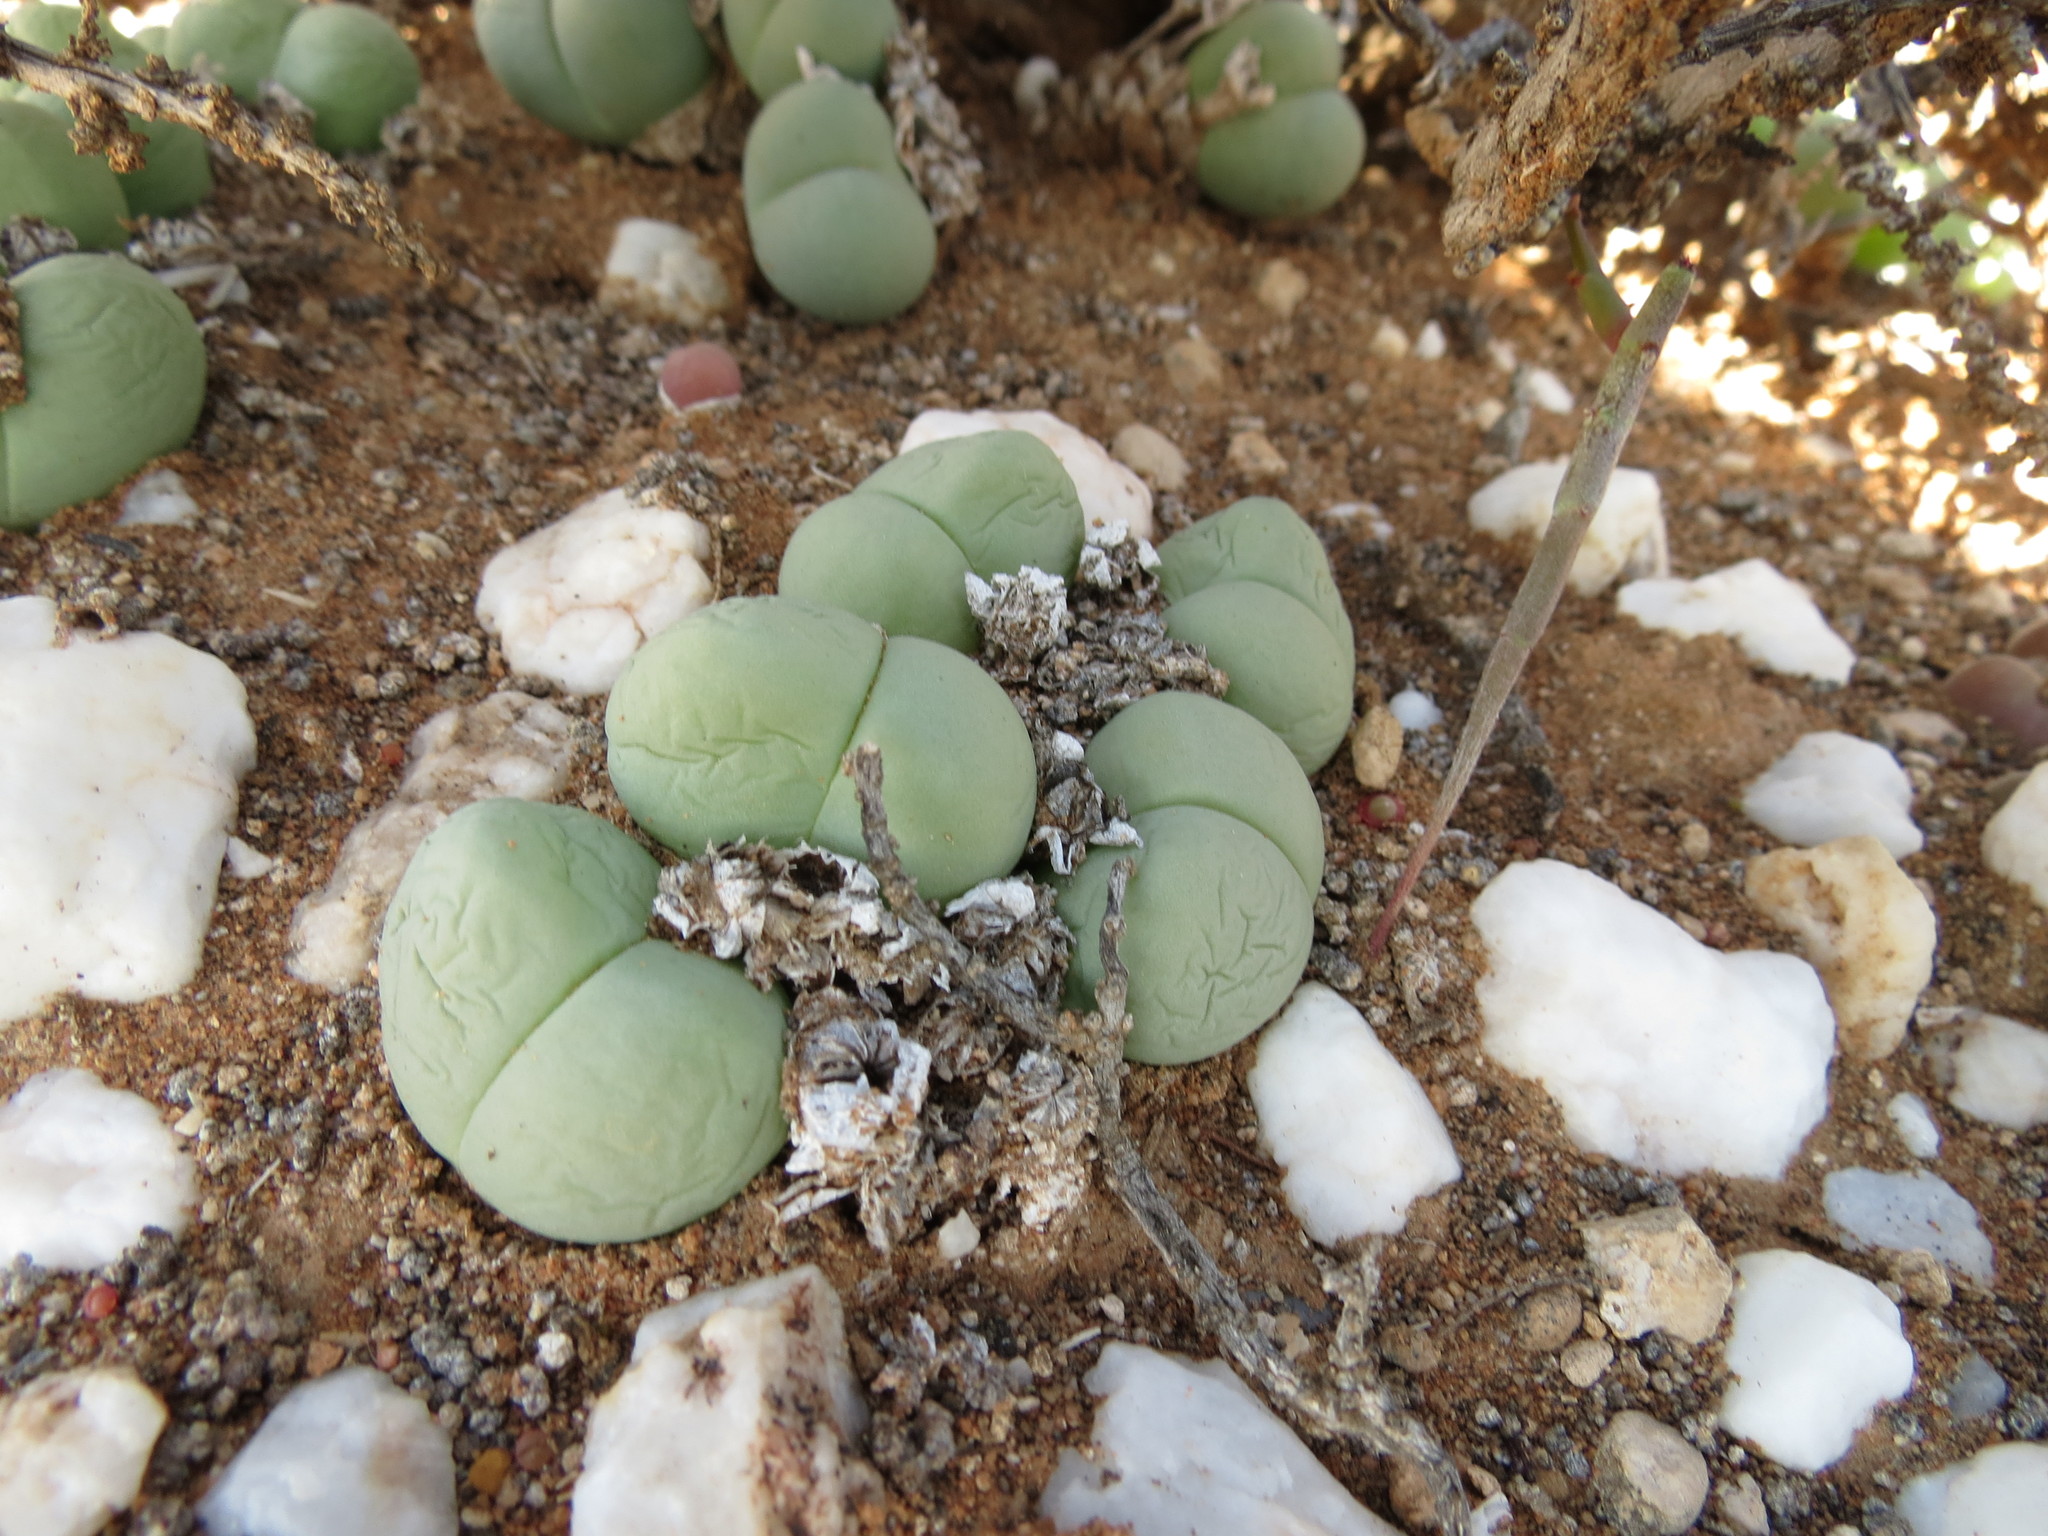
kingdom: Plantae
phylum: Tracheophyta
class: Magnoliopsida
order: Caryophyllales
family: Aizoaceae
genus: Gibbaeum
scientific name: Gibbaeum heathii
